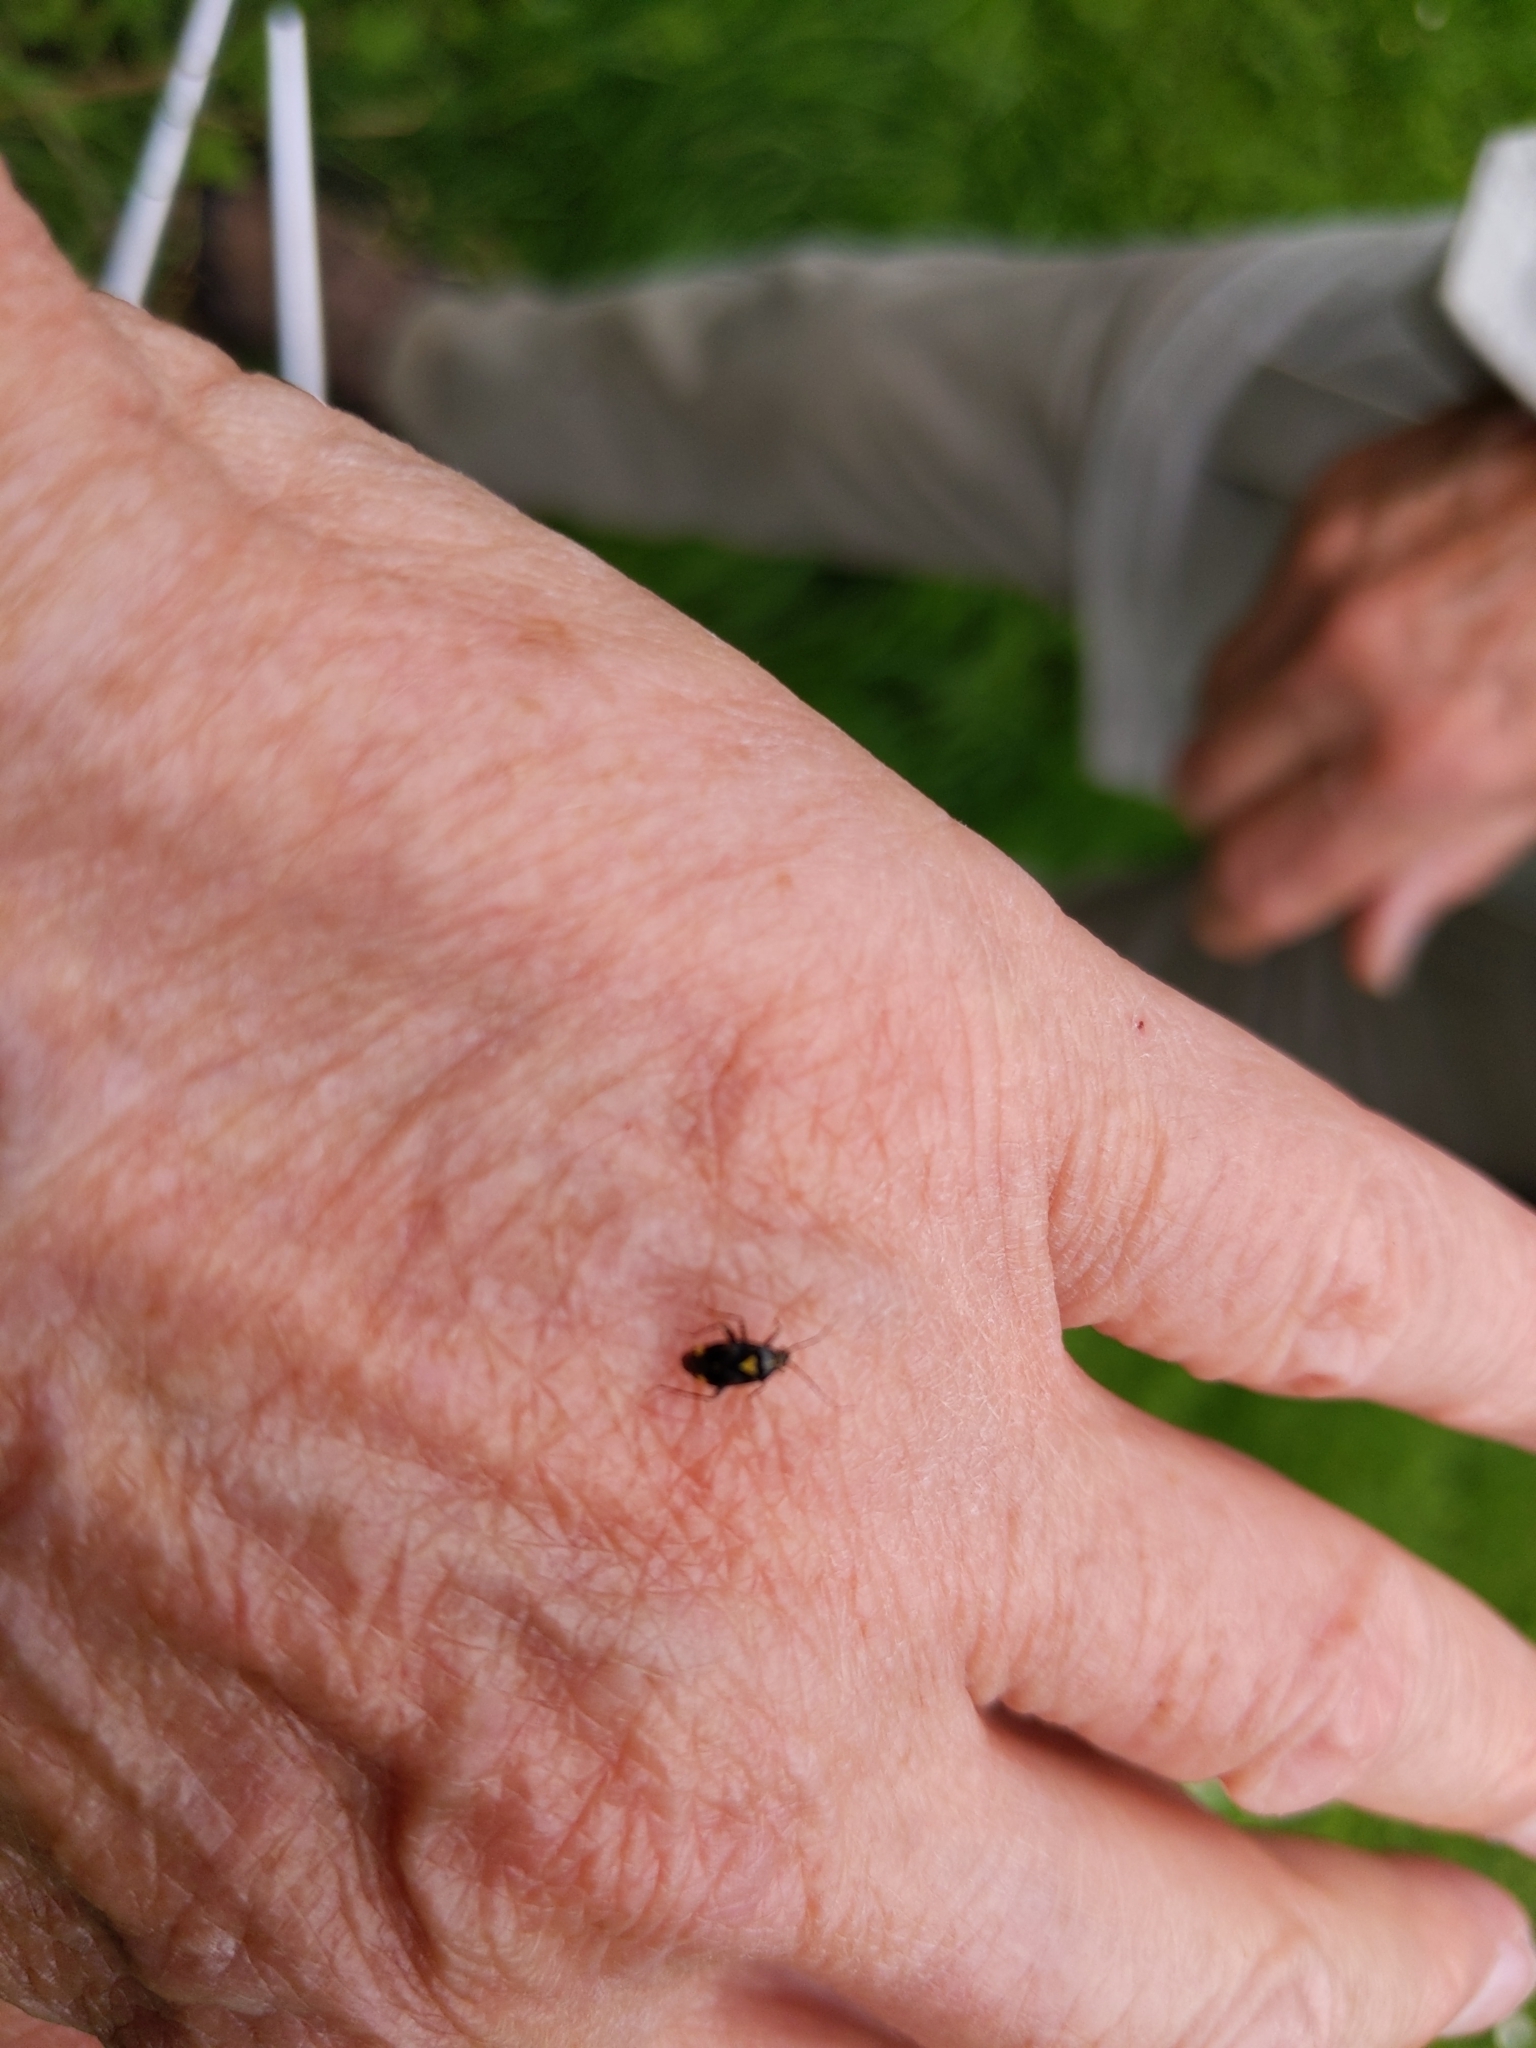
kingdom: Animalia
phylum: Arthropoda
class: Insecta
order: Hemiptera
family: Miridae
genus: Liocoris
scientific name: Liocoris tripustulatus
